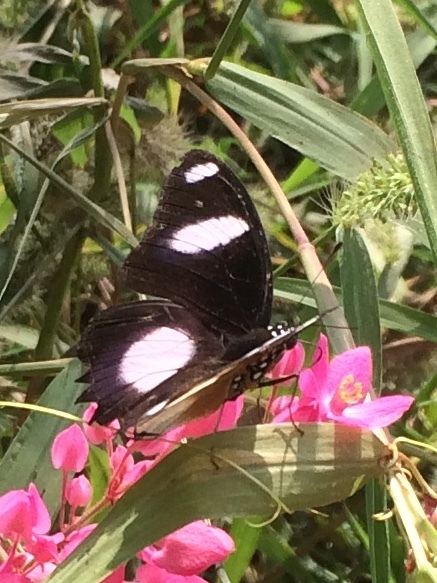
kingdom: Animalia
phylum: Arthropoda
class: Insecta
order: Lepidoptera
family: Nymphalidae
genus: Hypolimnas
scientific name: Hypolimnas misippus
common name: False plain tiger
